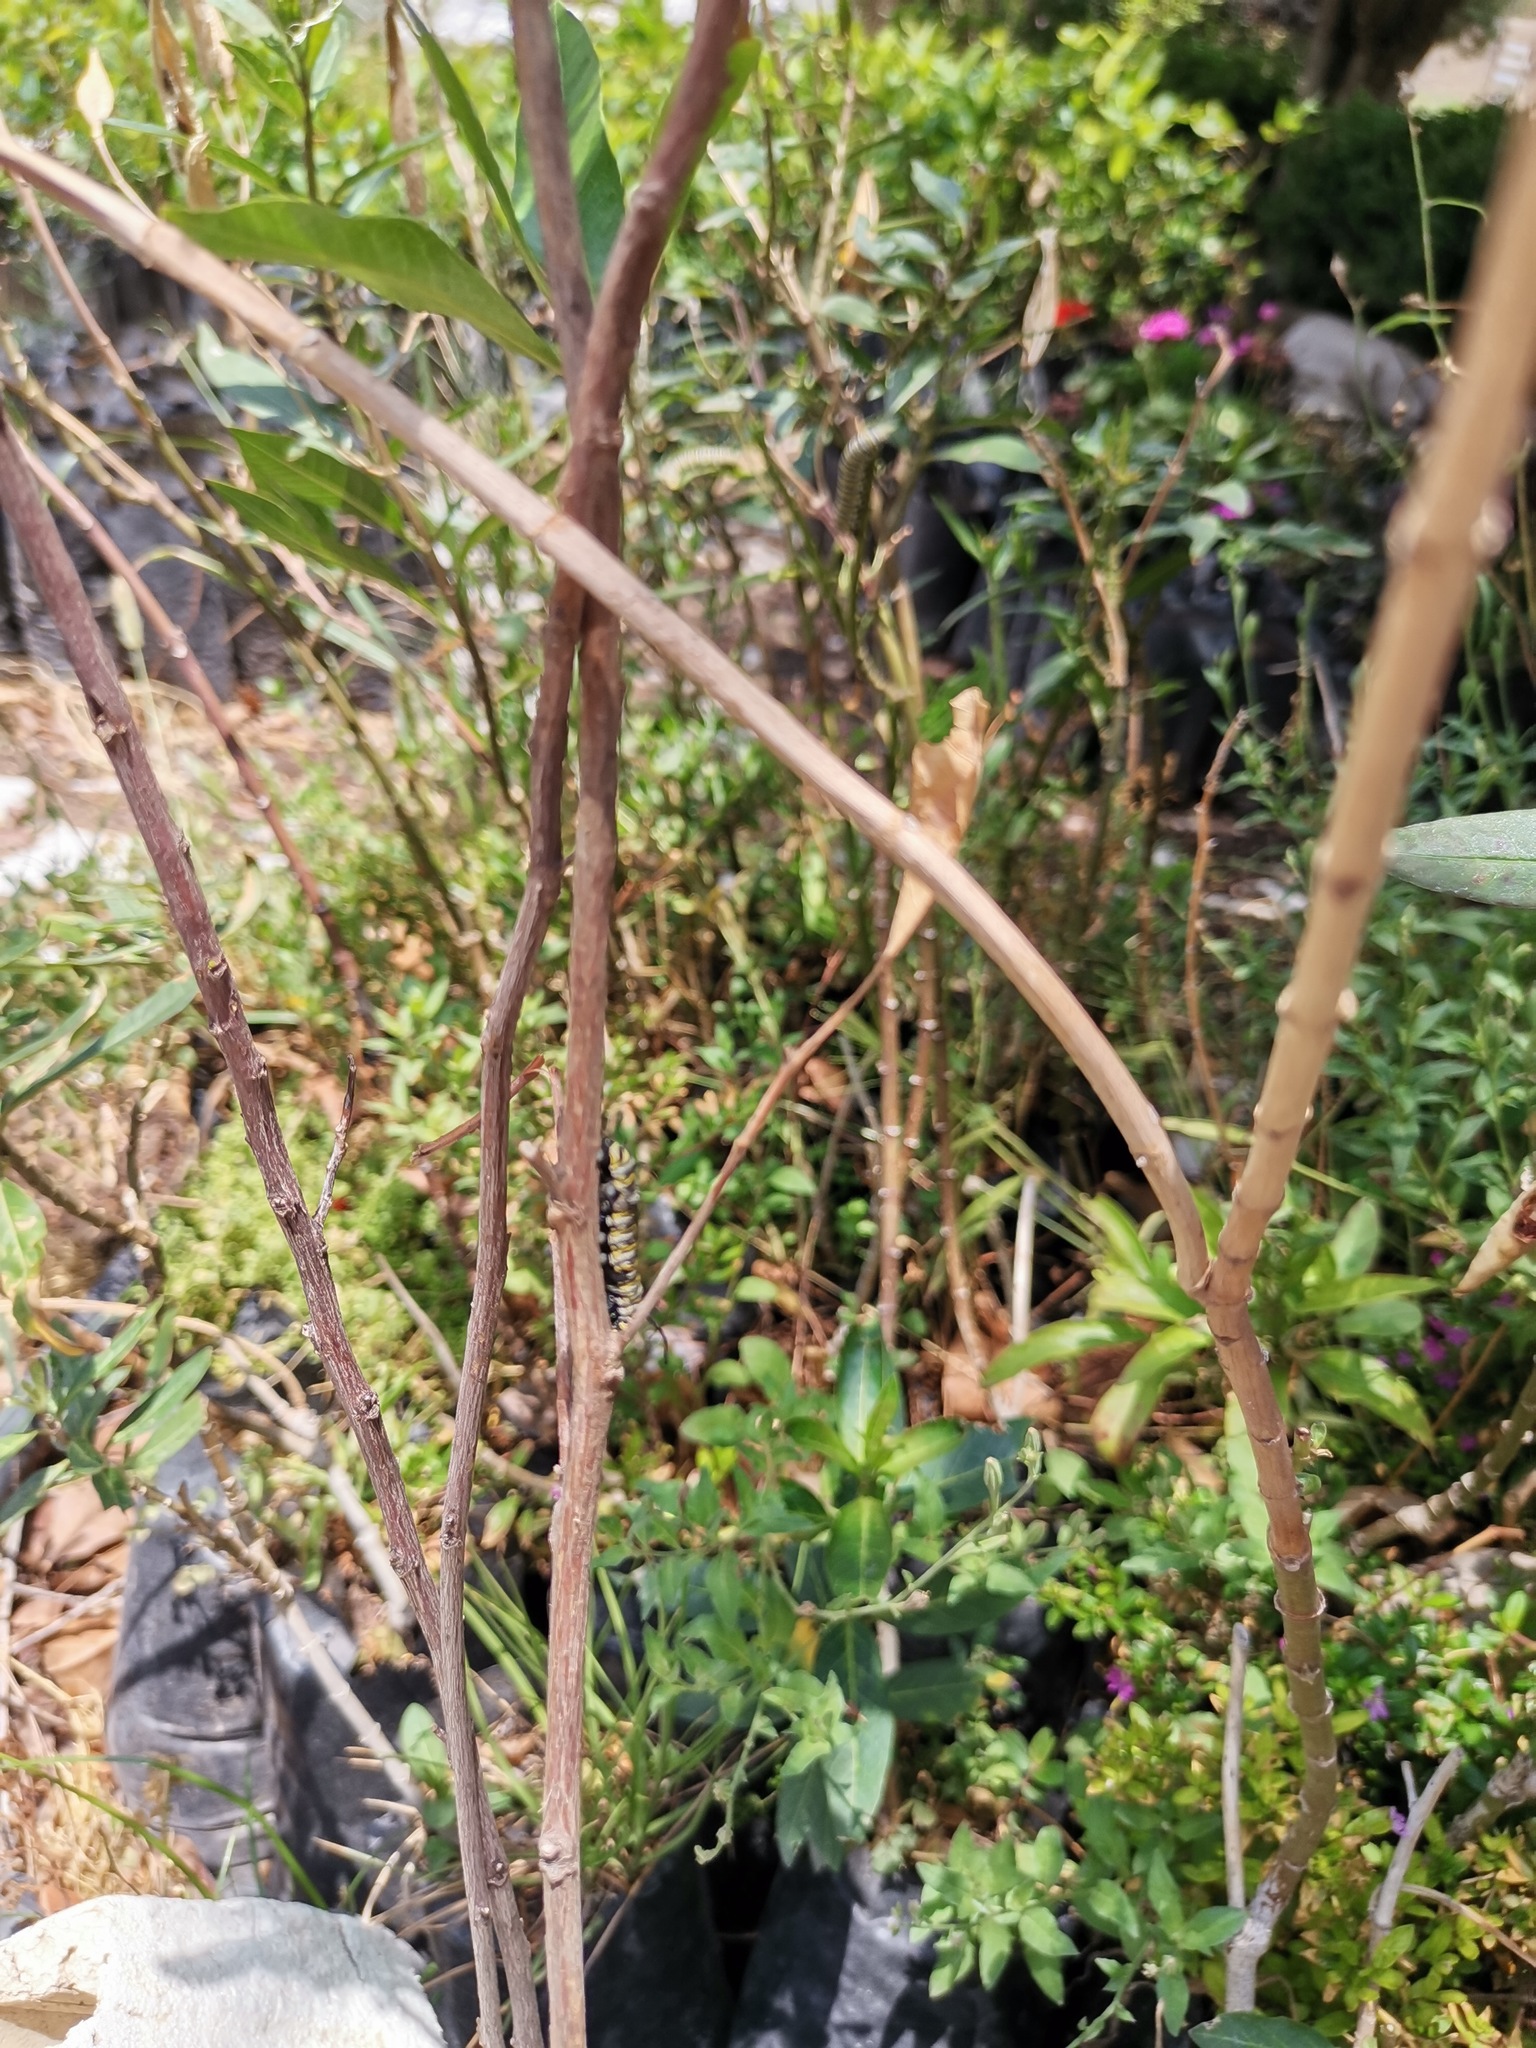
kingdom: Animalia
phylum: Arthropoda
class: Insecta
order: Lepidoptera
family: Nymphalidae
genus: Danaus
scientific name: Danaus plexippus
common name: Monarch
